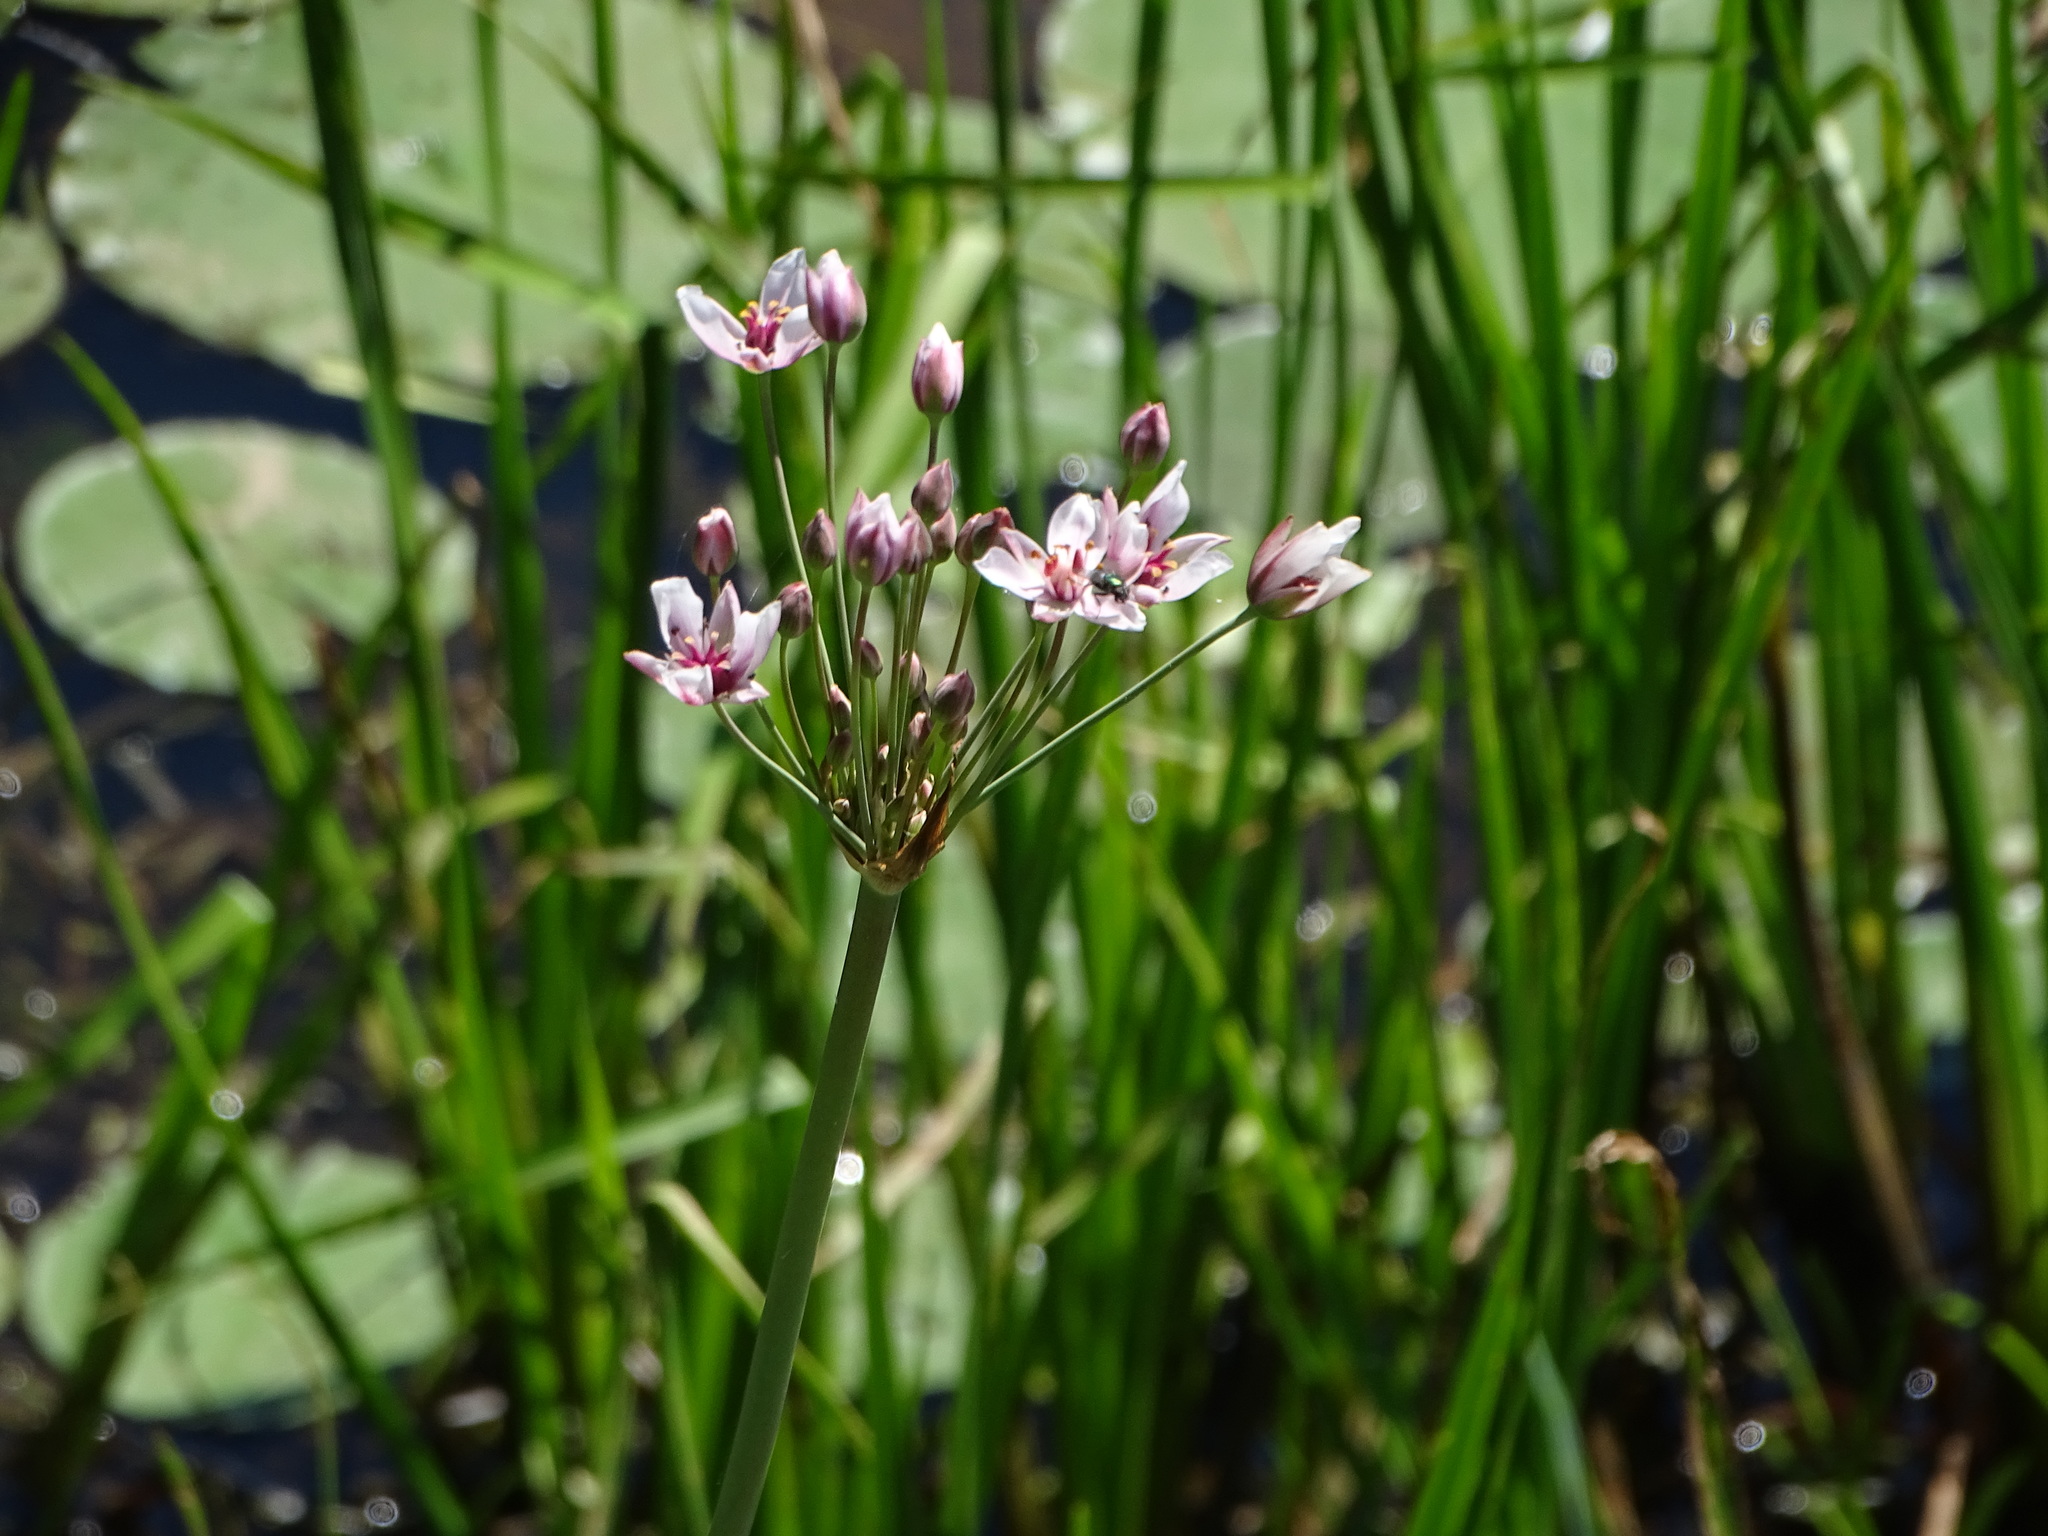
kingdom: Plantae
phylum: Tracheophyta
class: Liliopsida
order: Alismatales
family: Butomaceae
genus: Butomus
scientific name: Butomus umbellatus
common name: Flowering-rush
